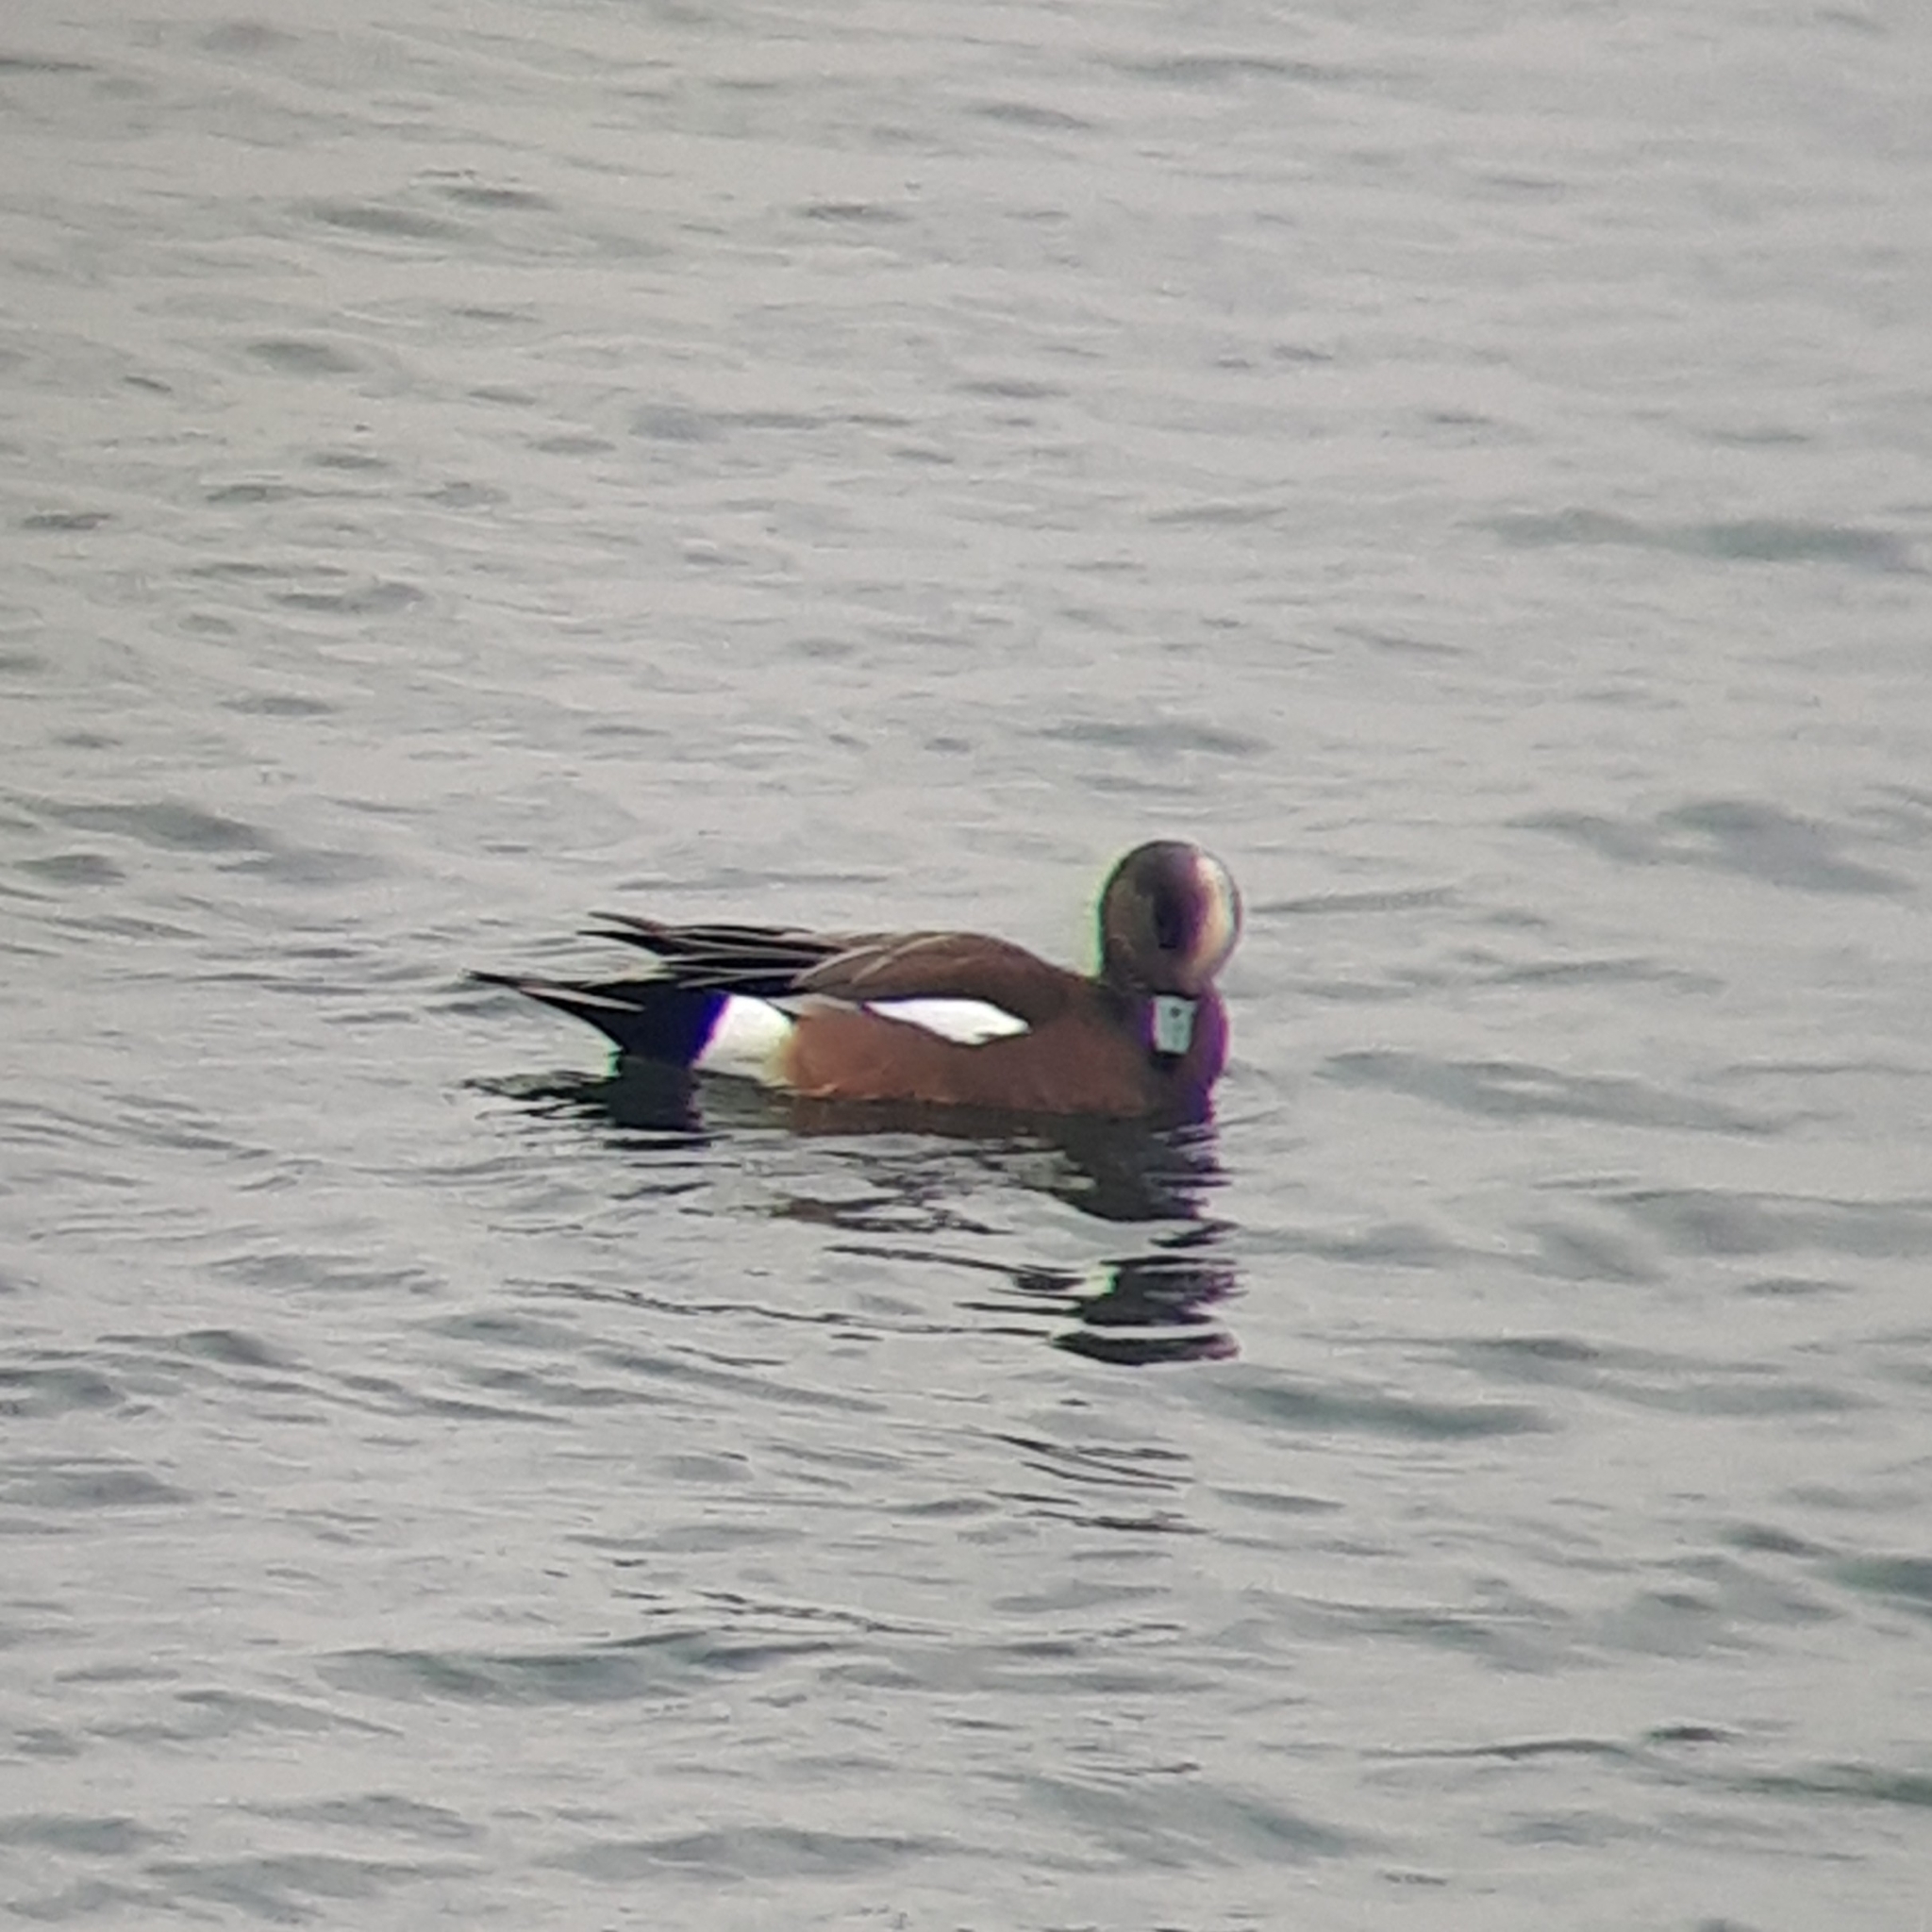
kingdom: Animalia
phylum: Chordata
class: Aves
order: Anseriformes
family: Anatidae
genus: Mareca
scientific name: Mareca americana
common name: American wigeon
